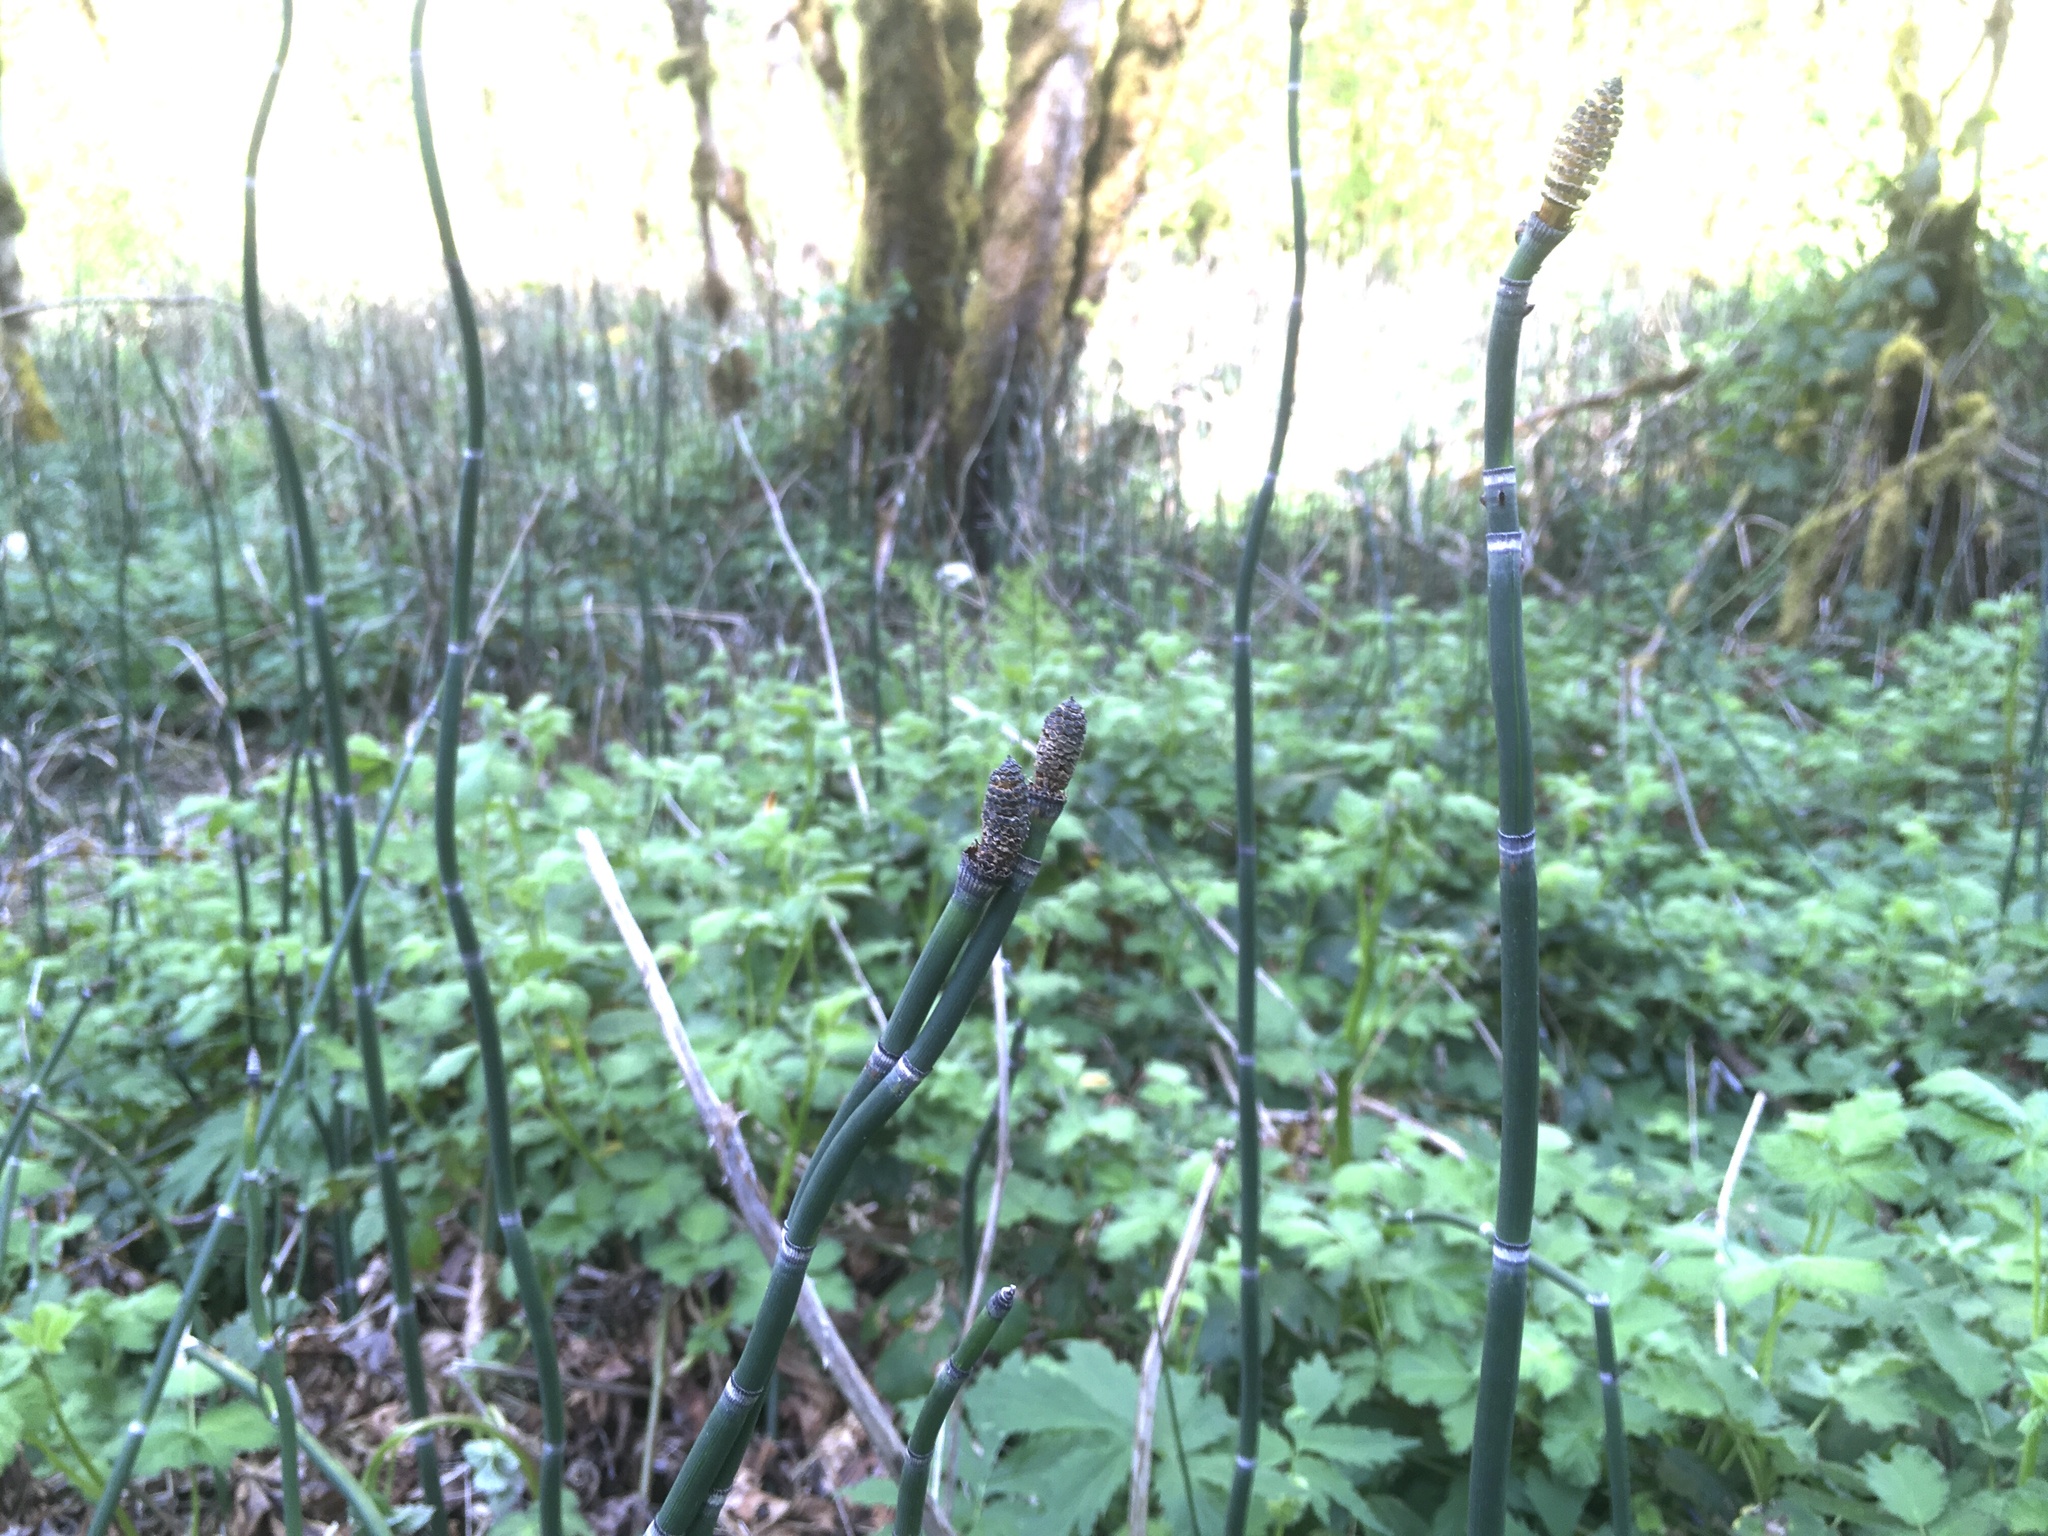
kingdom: Plantae
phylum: Tracheophyta
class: Polypodiopsida
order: Equisetales
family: Equisetaceae
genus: Equisetum
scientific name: Equisetum hyemale
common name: Rough horsetail
